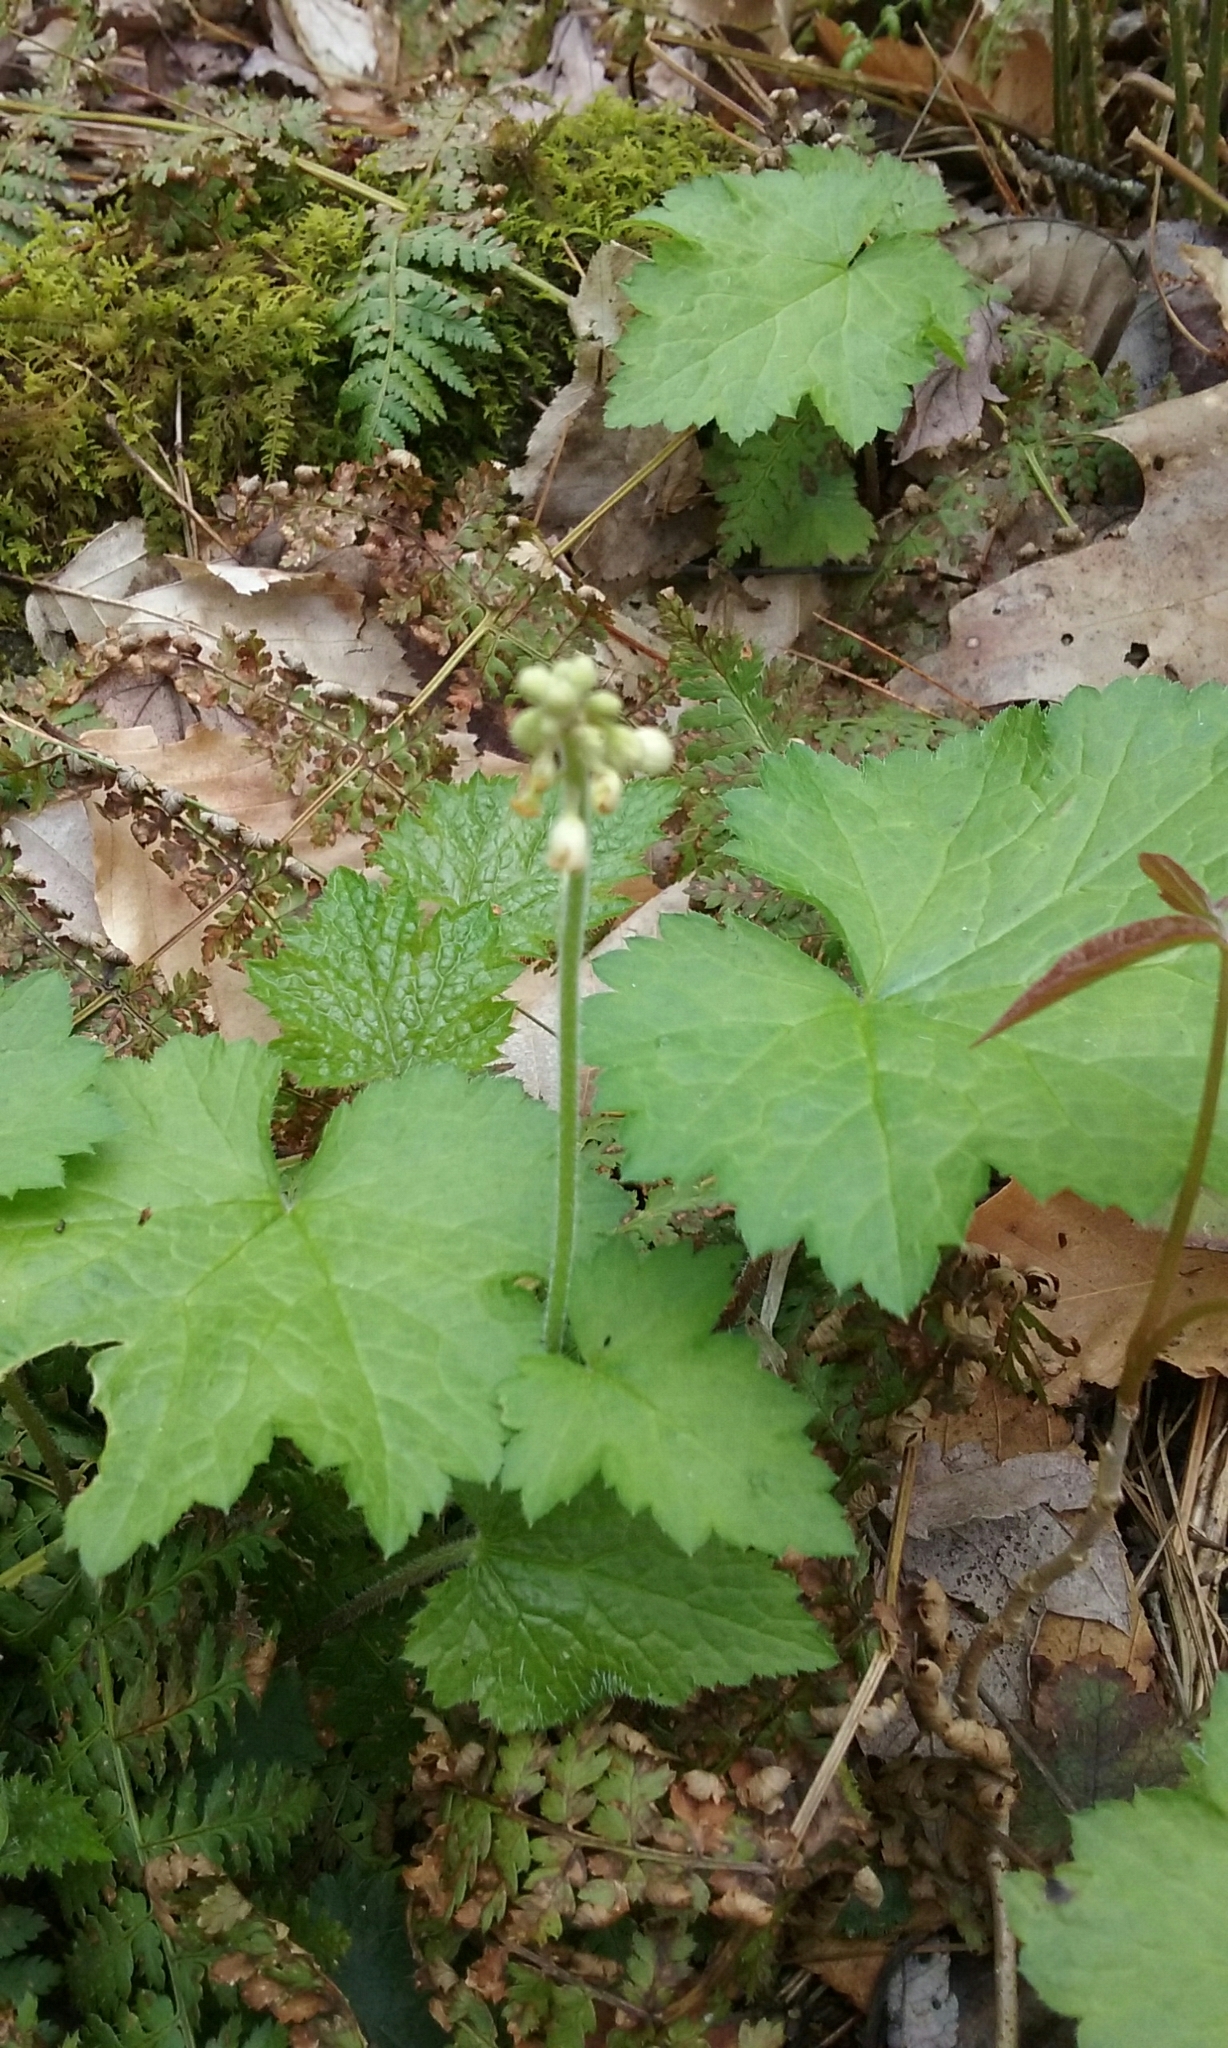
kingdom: Plantae
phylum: Tracheophyta
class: Magnoliopsida
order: Saxifragales
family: Saxifragaceae
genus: Tiarella
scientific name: Tiarella stolonifera
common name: Stoloniferous foamflower
